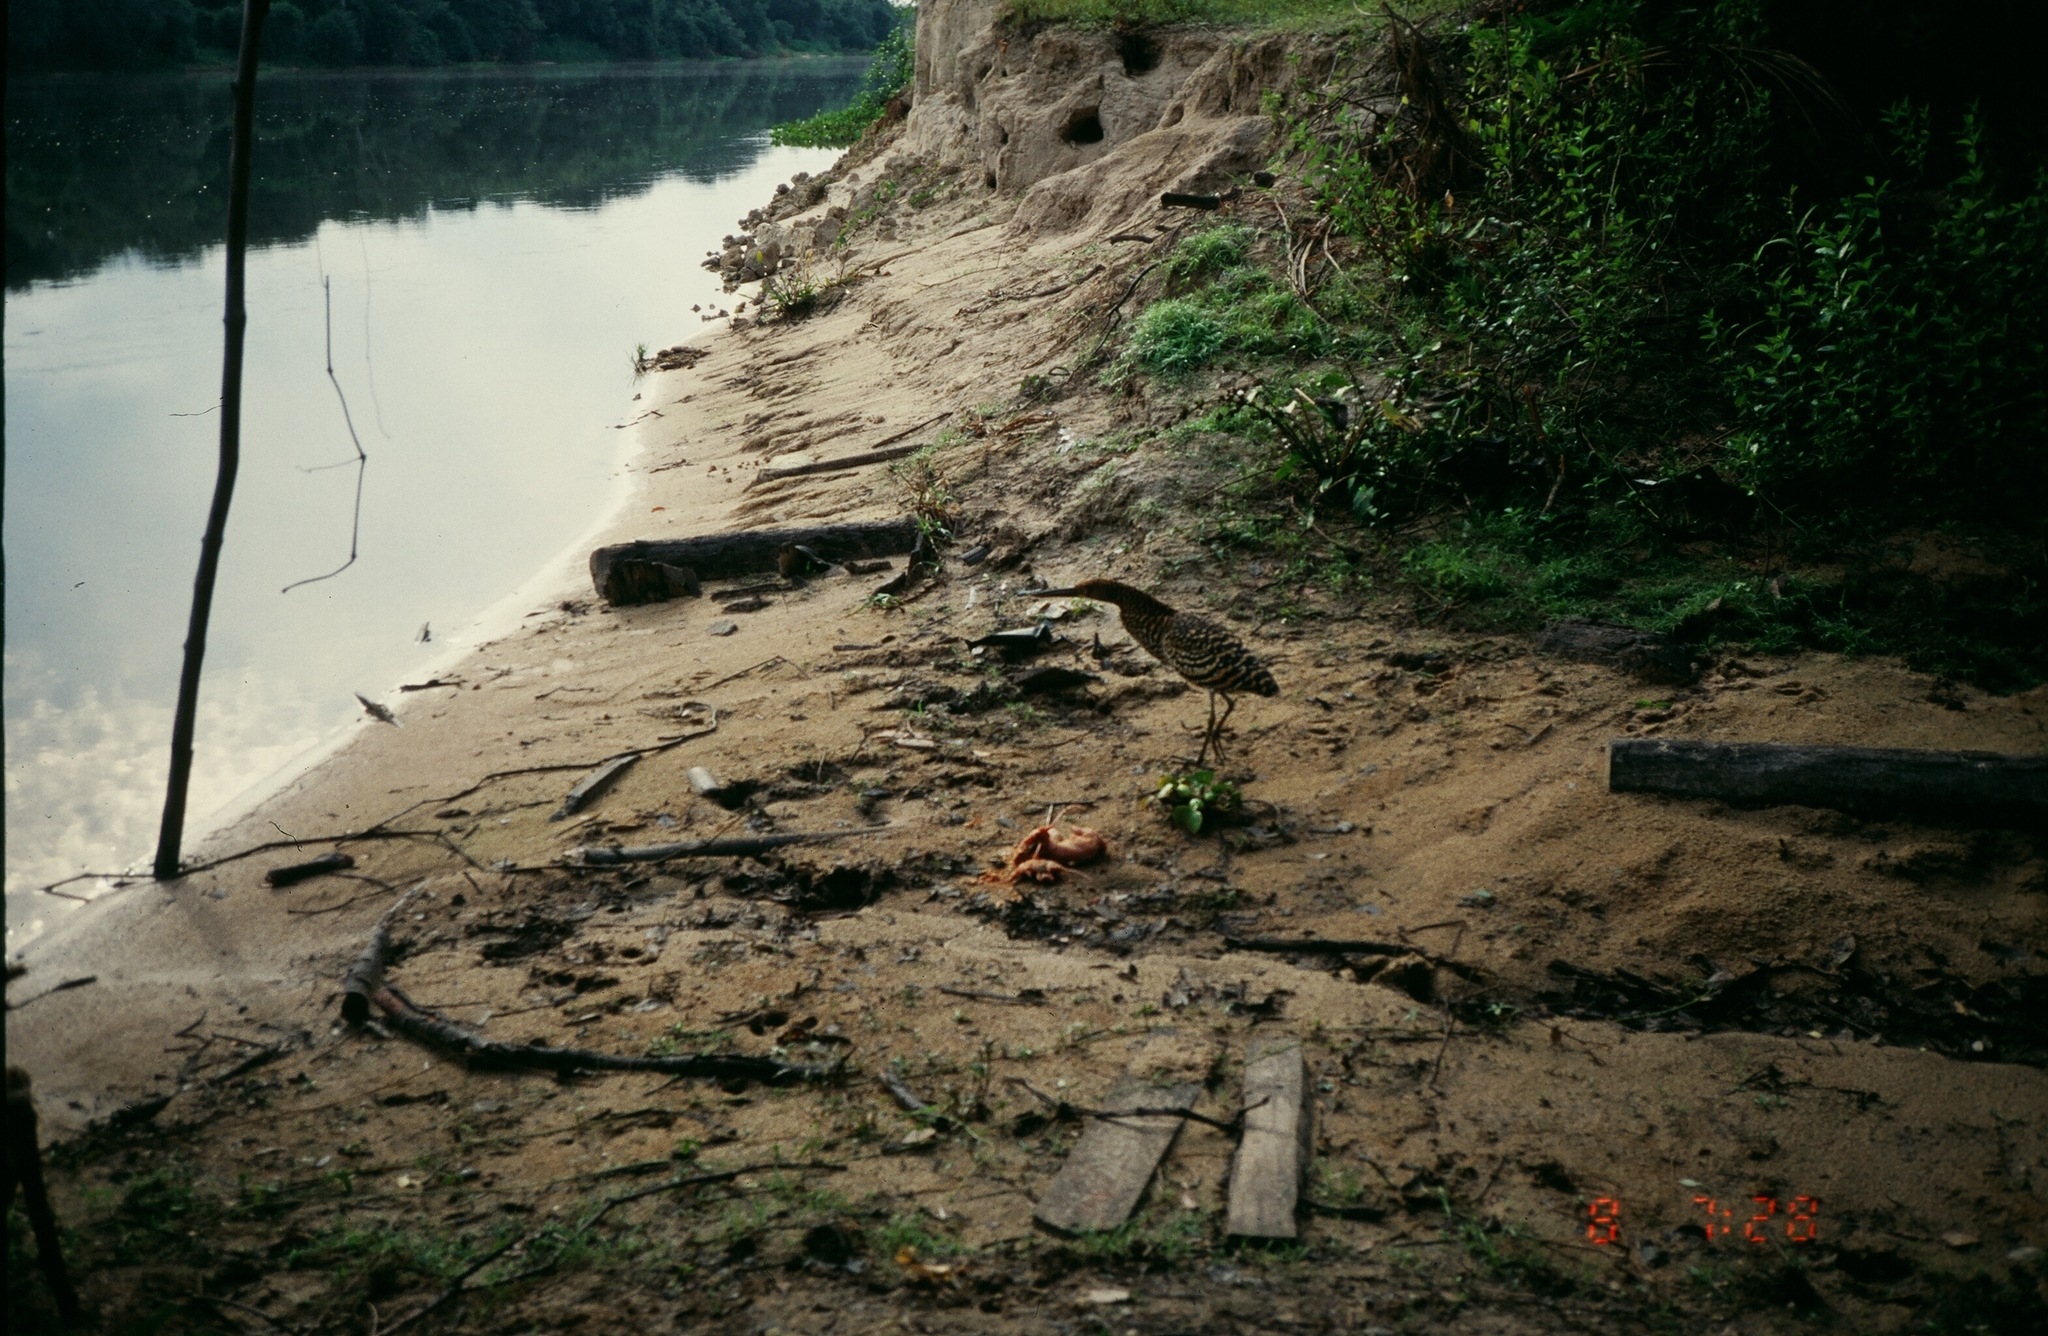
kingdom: Animalia
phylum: Chordata
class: Aves
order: Pelecaniformes
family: Ardeidae
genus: Tigrisoma
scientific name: Tigrisoma lineatum
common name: Rufescent tiger-heron
